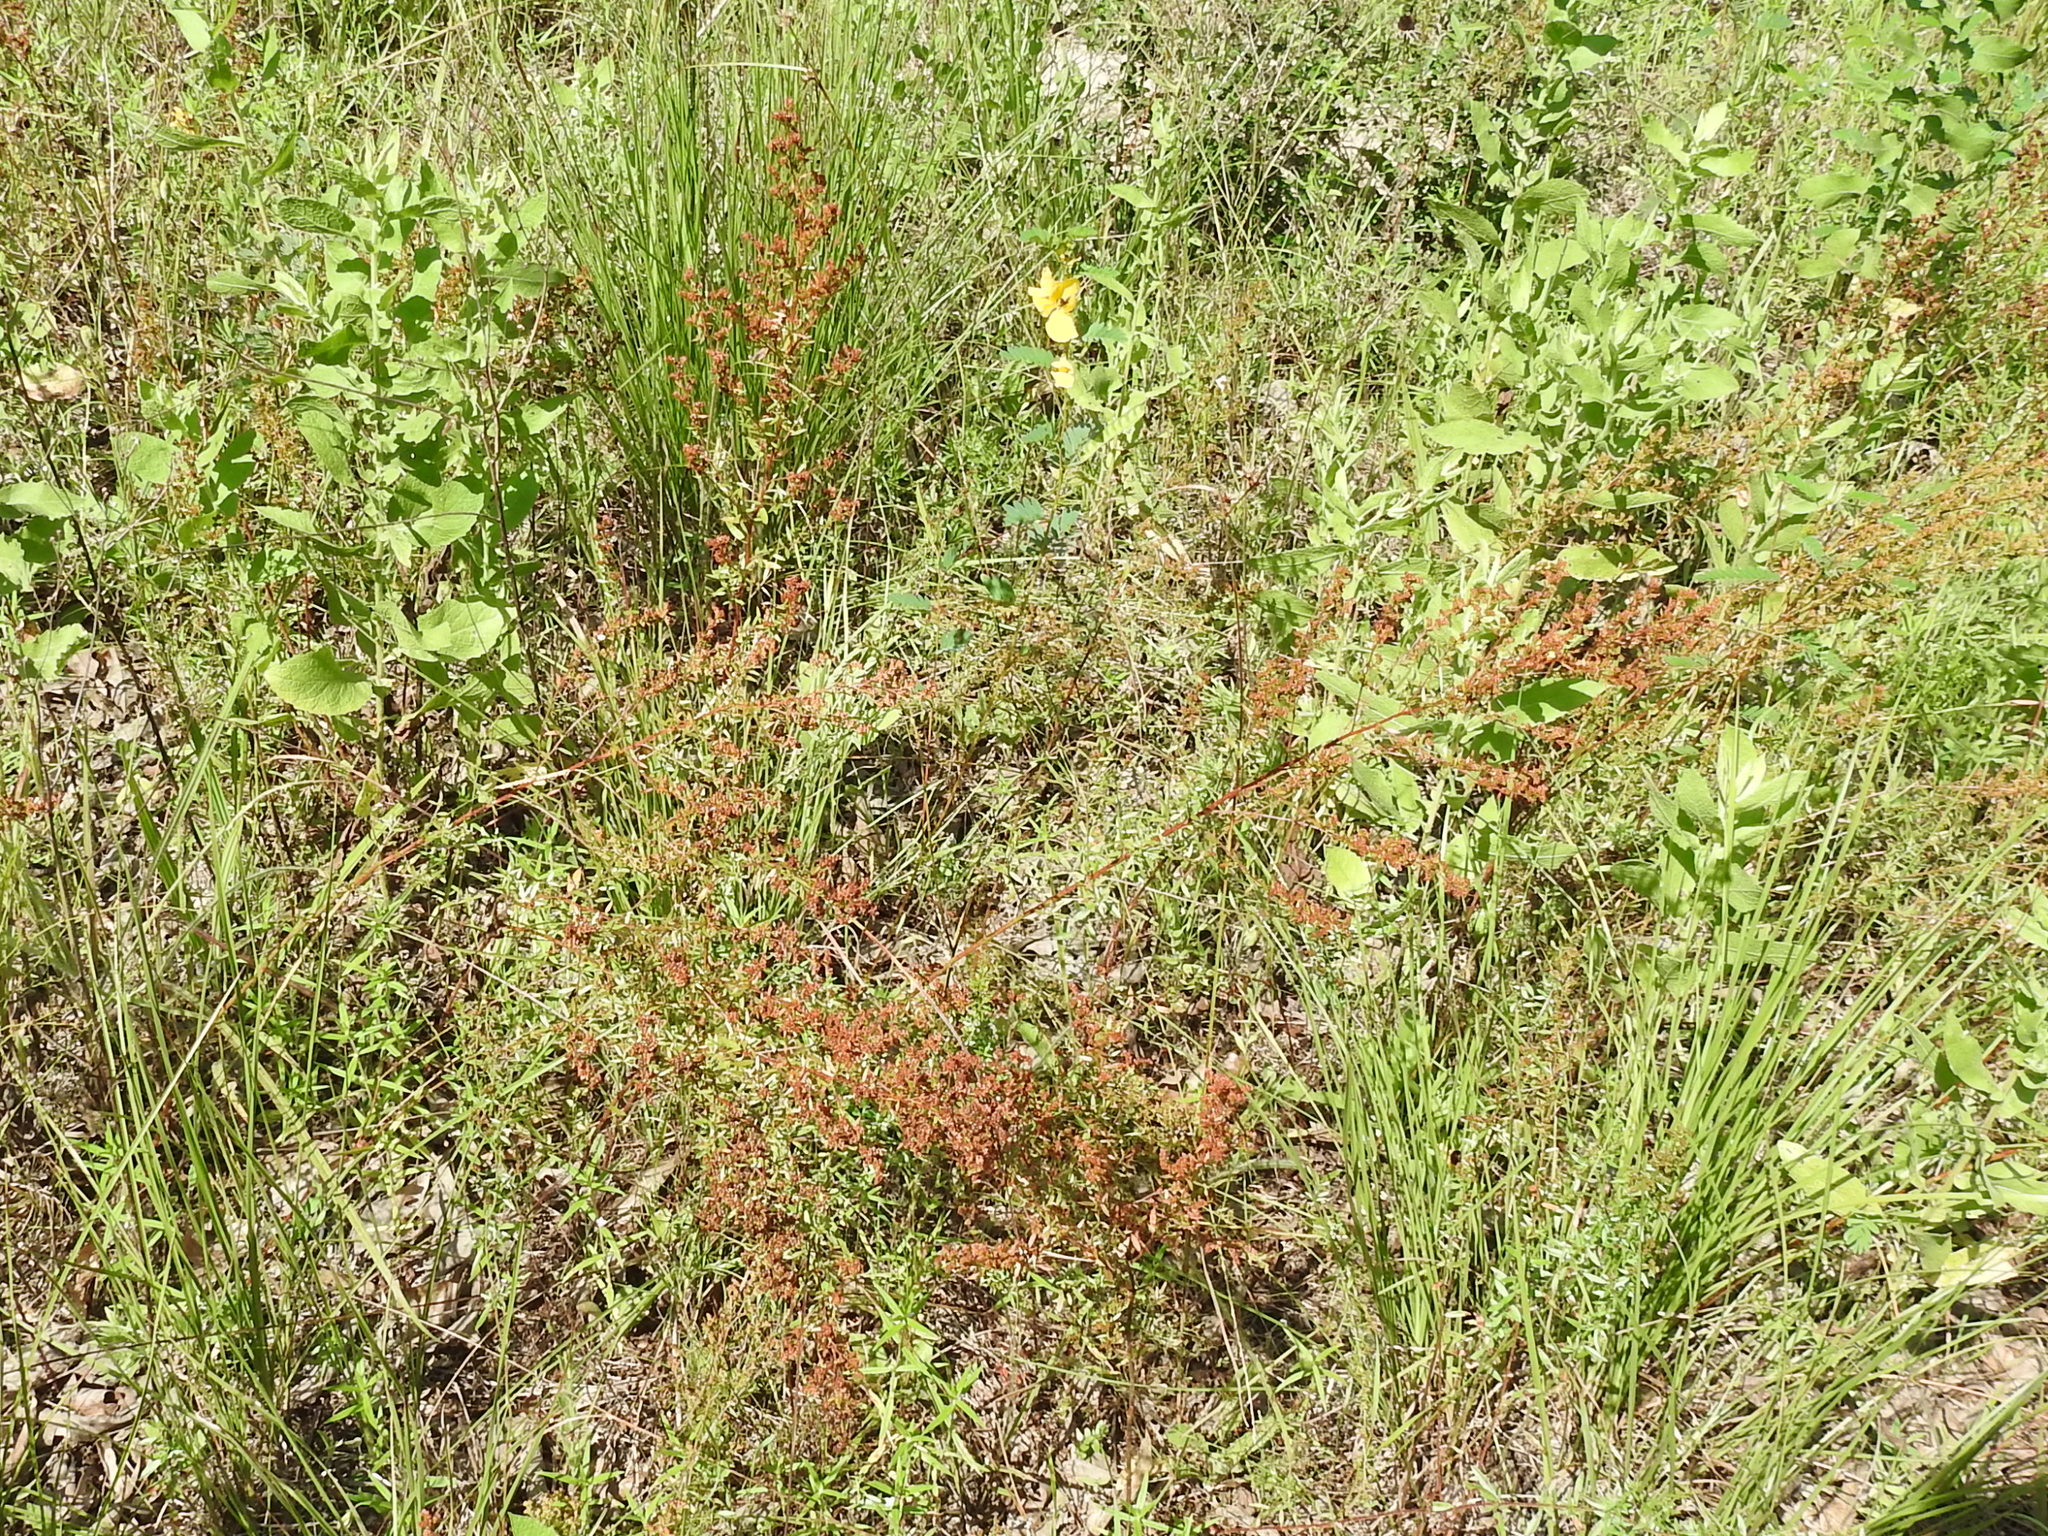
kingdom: Plantae
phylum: Tracheophyta
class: Magnoliopsida
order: Malvales
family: Cistaceae
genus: Lechea
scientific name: Lechea mucronata
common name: Hairy pinweed
